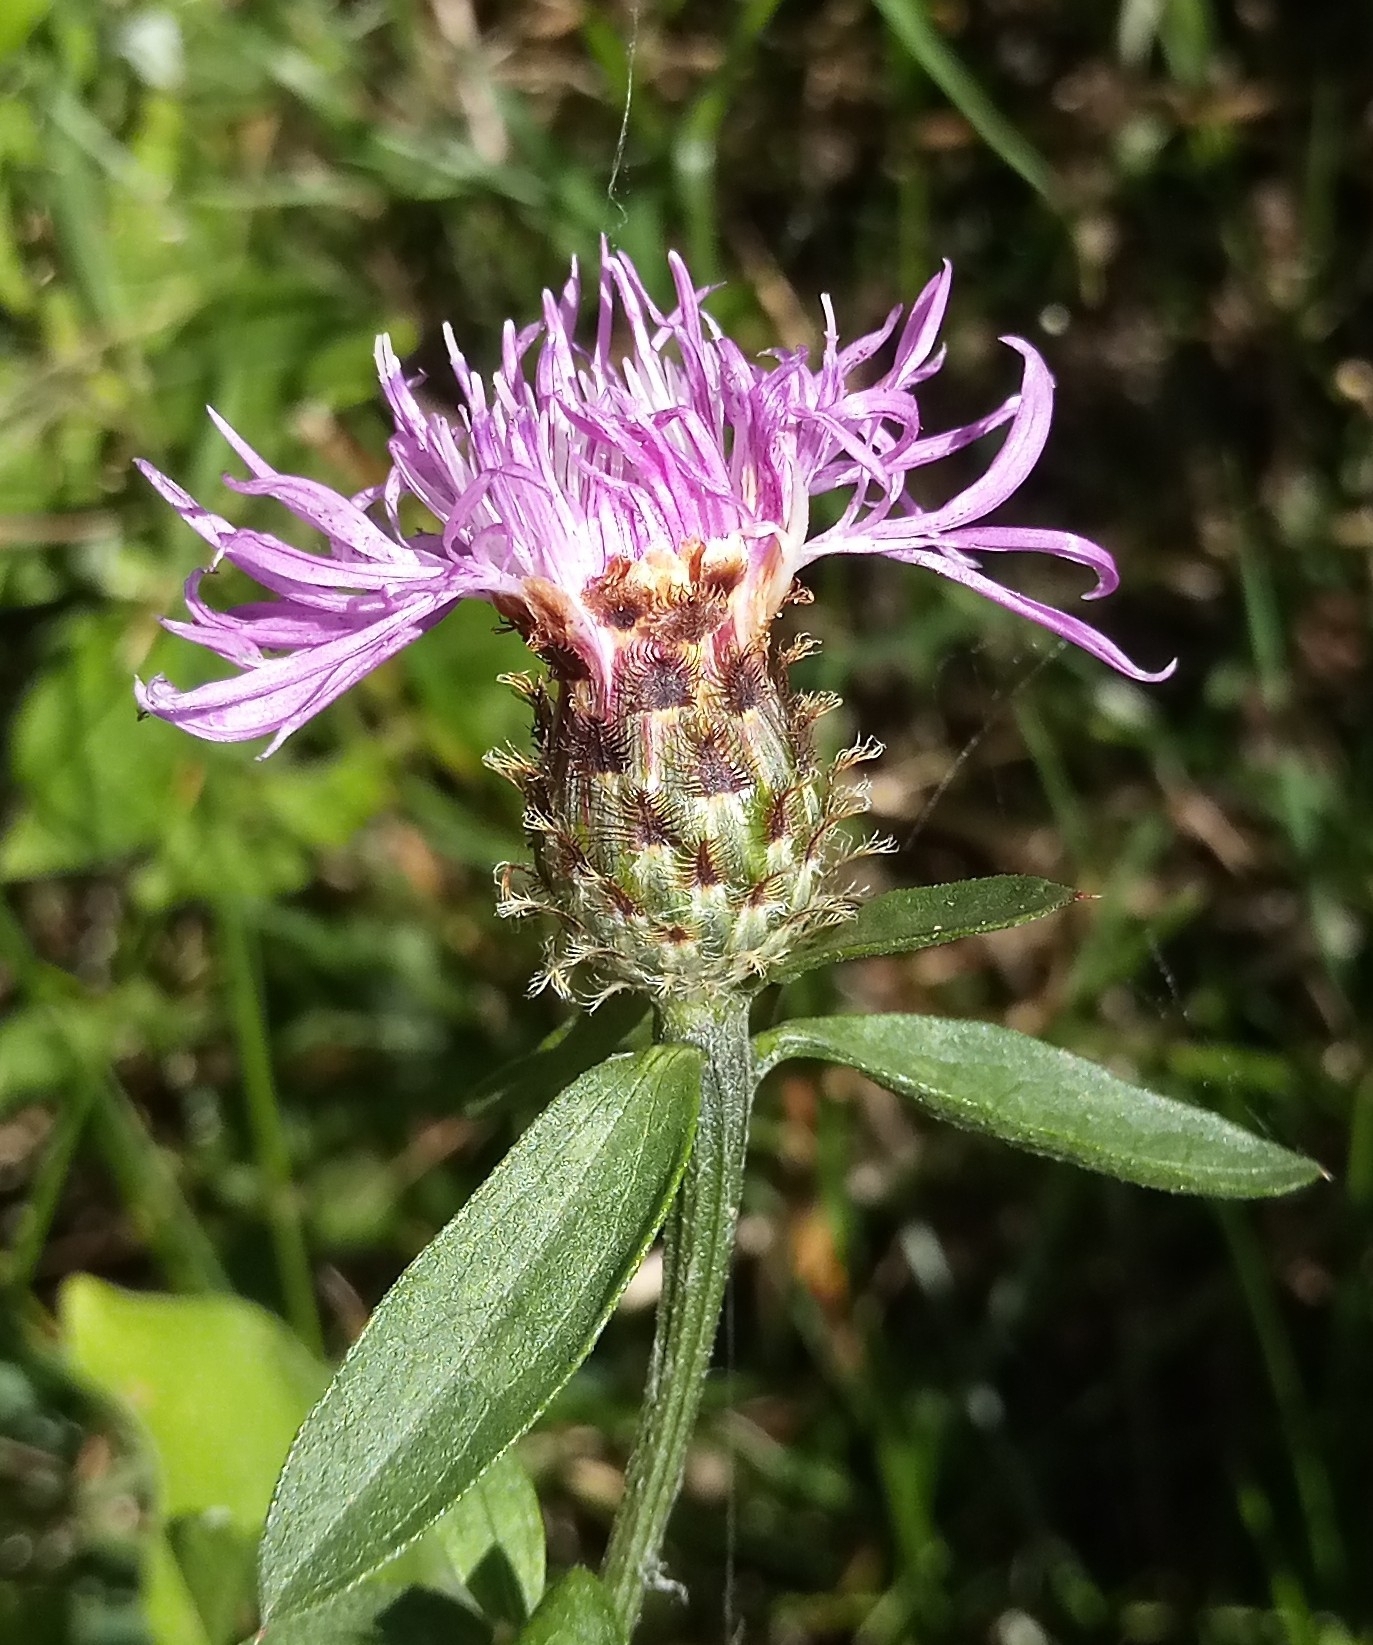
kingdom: Plantae
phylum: Tracheophyta
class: Magnoliopsida
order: Asterales
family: Asteraceae
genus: Centaurea
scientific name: Centaurea oxylepis
